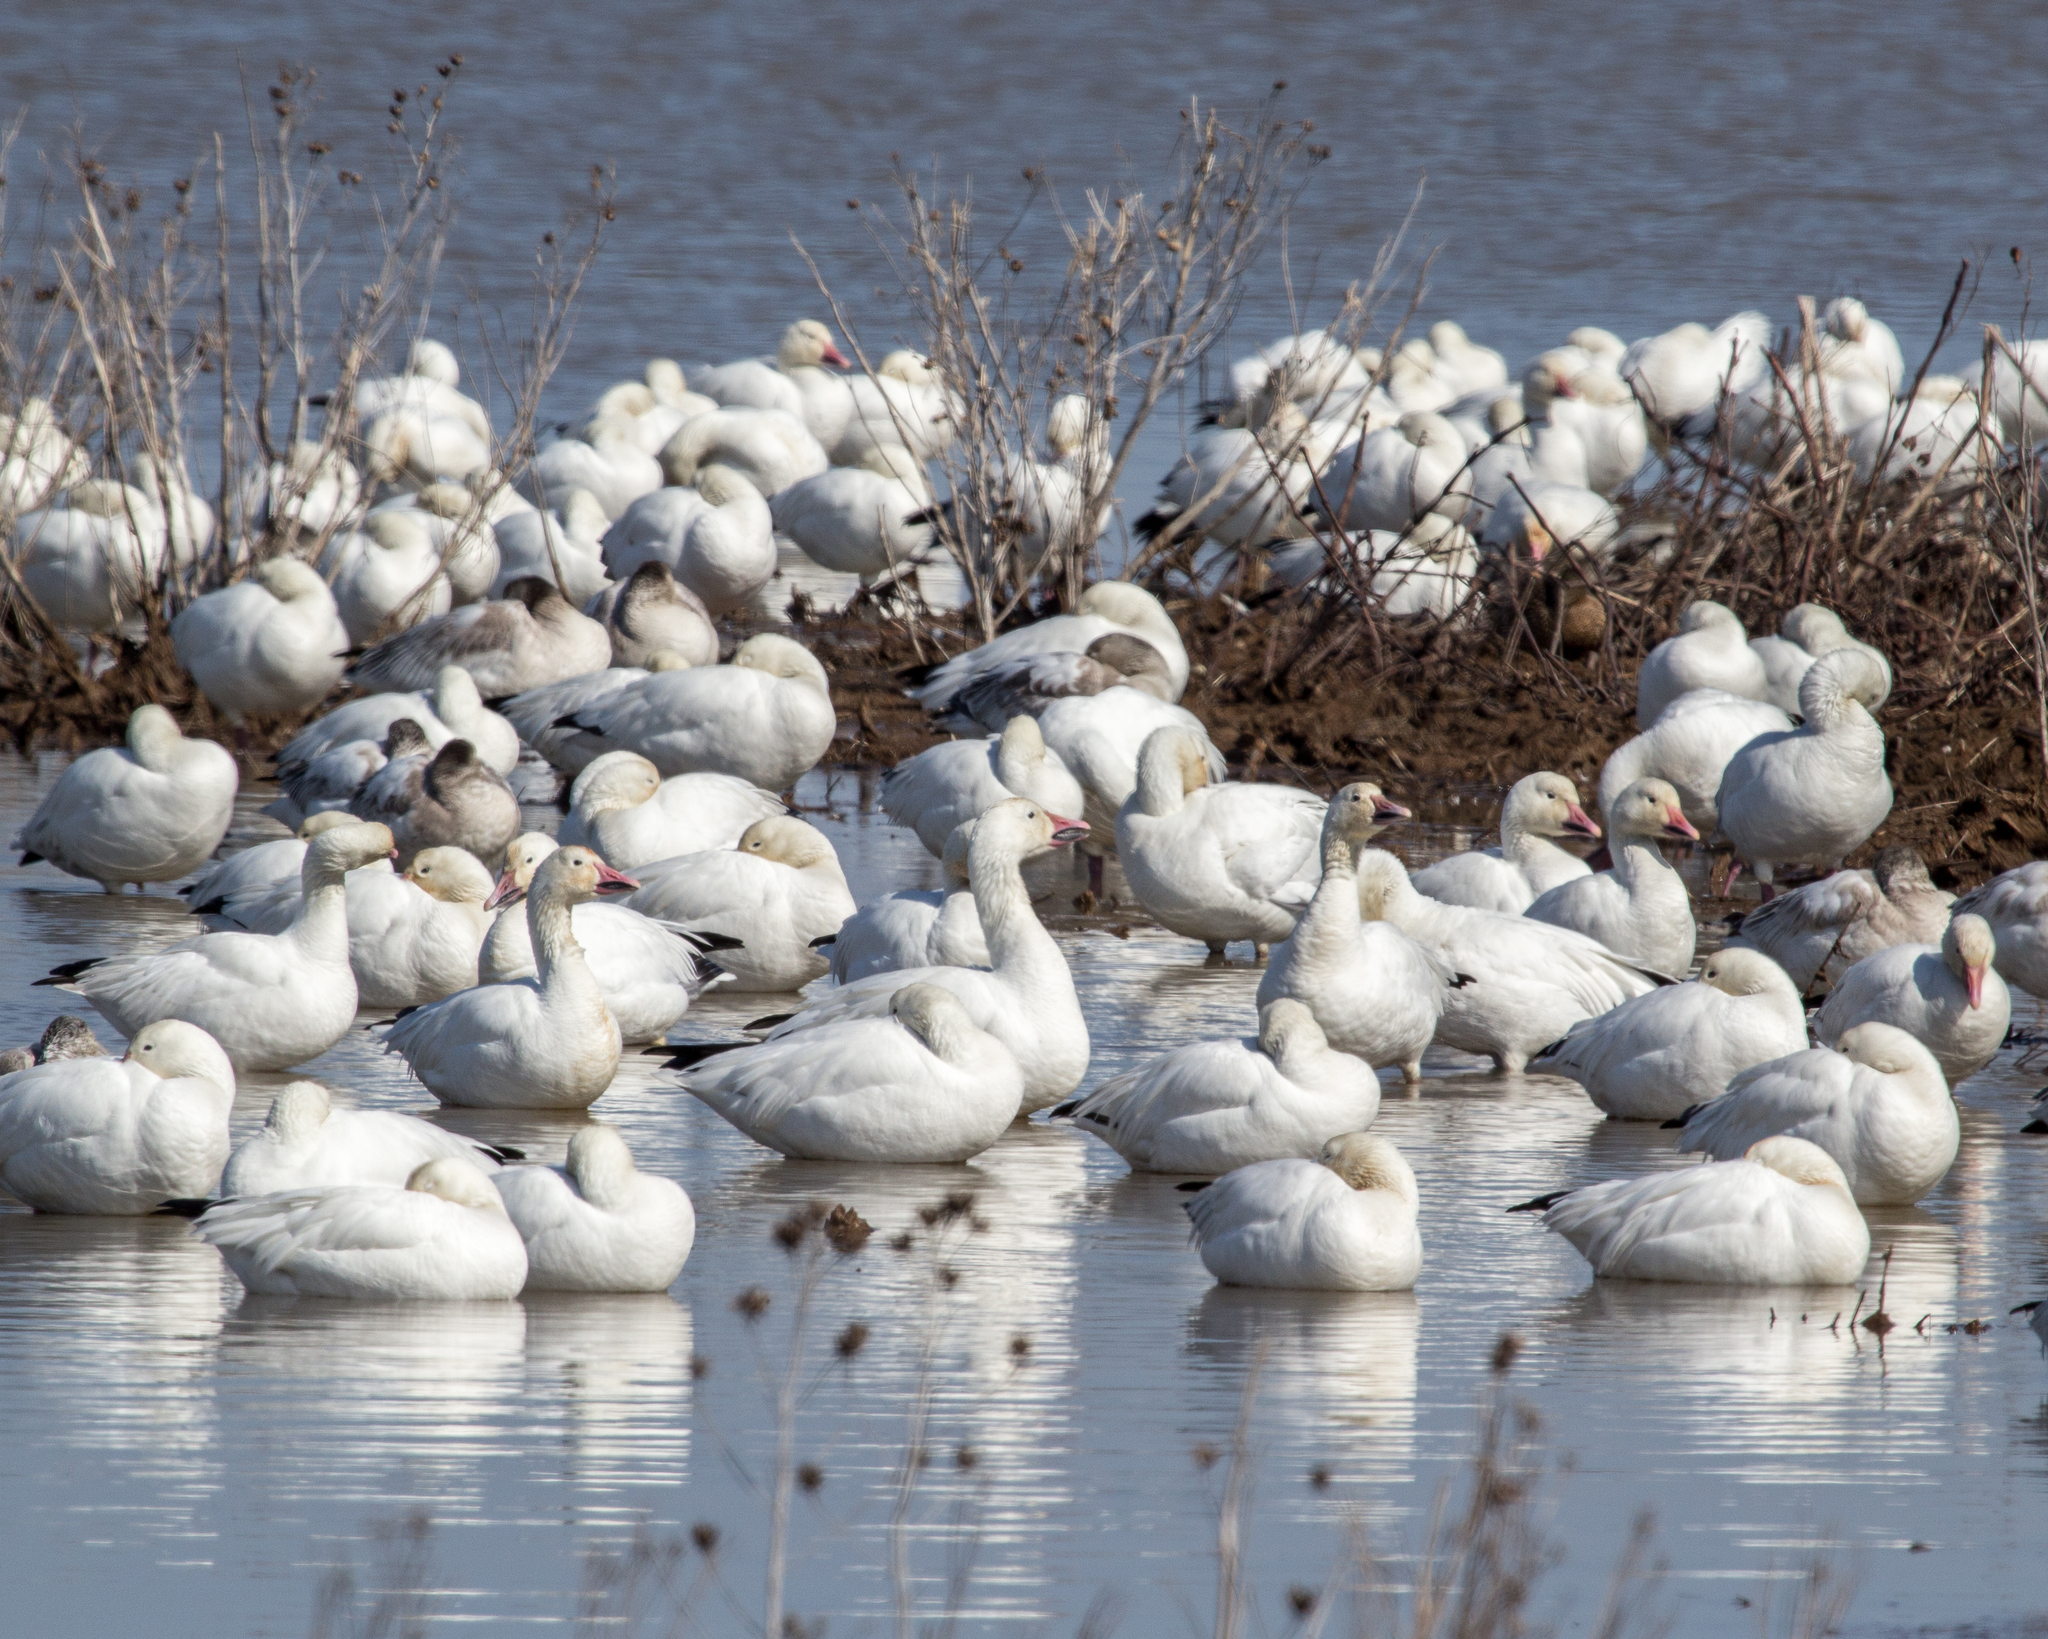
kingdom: Animalia
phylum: Chordata
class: Aves
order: Anseriformes
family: Anatidae
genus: Anser
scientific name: Anser caerulescens
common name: Snow goose
